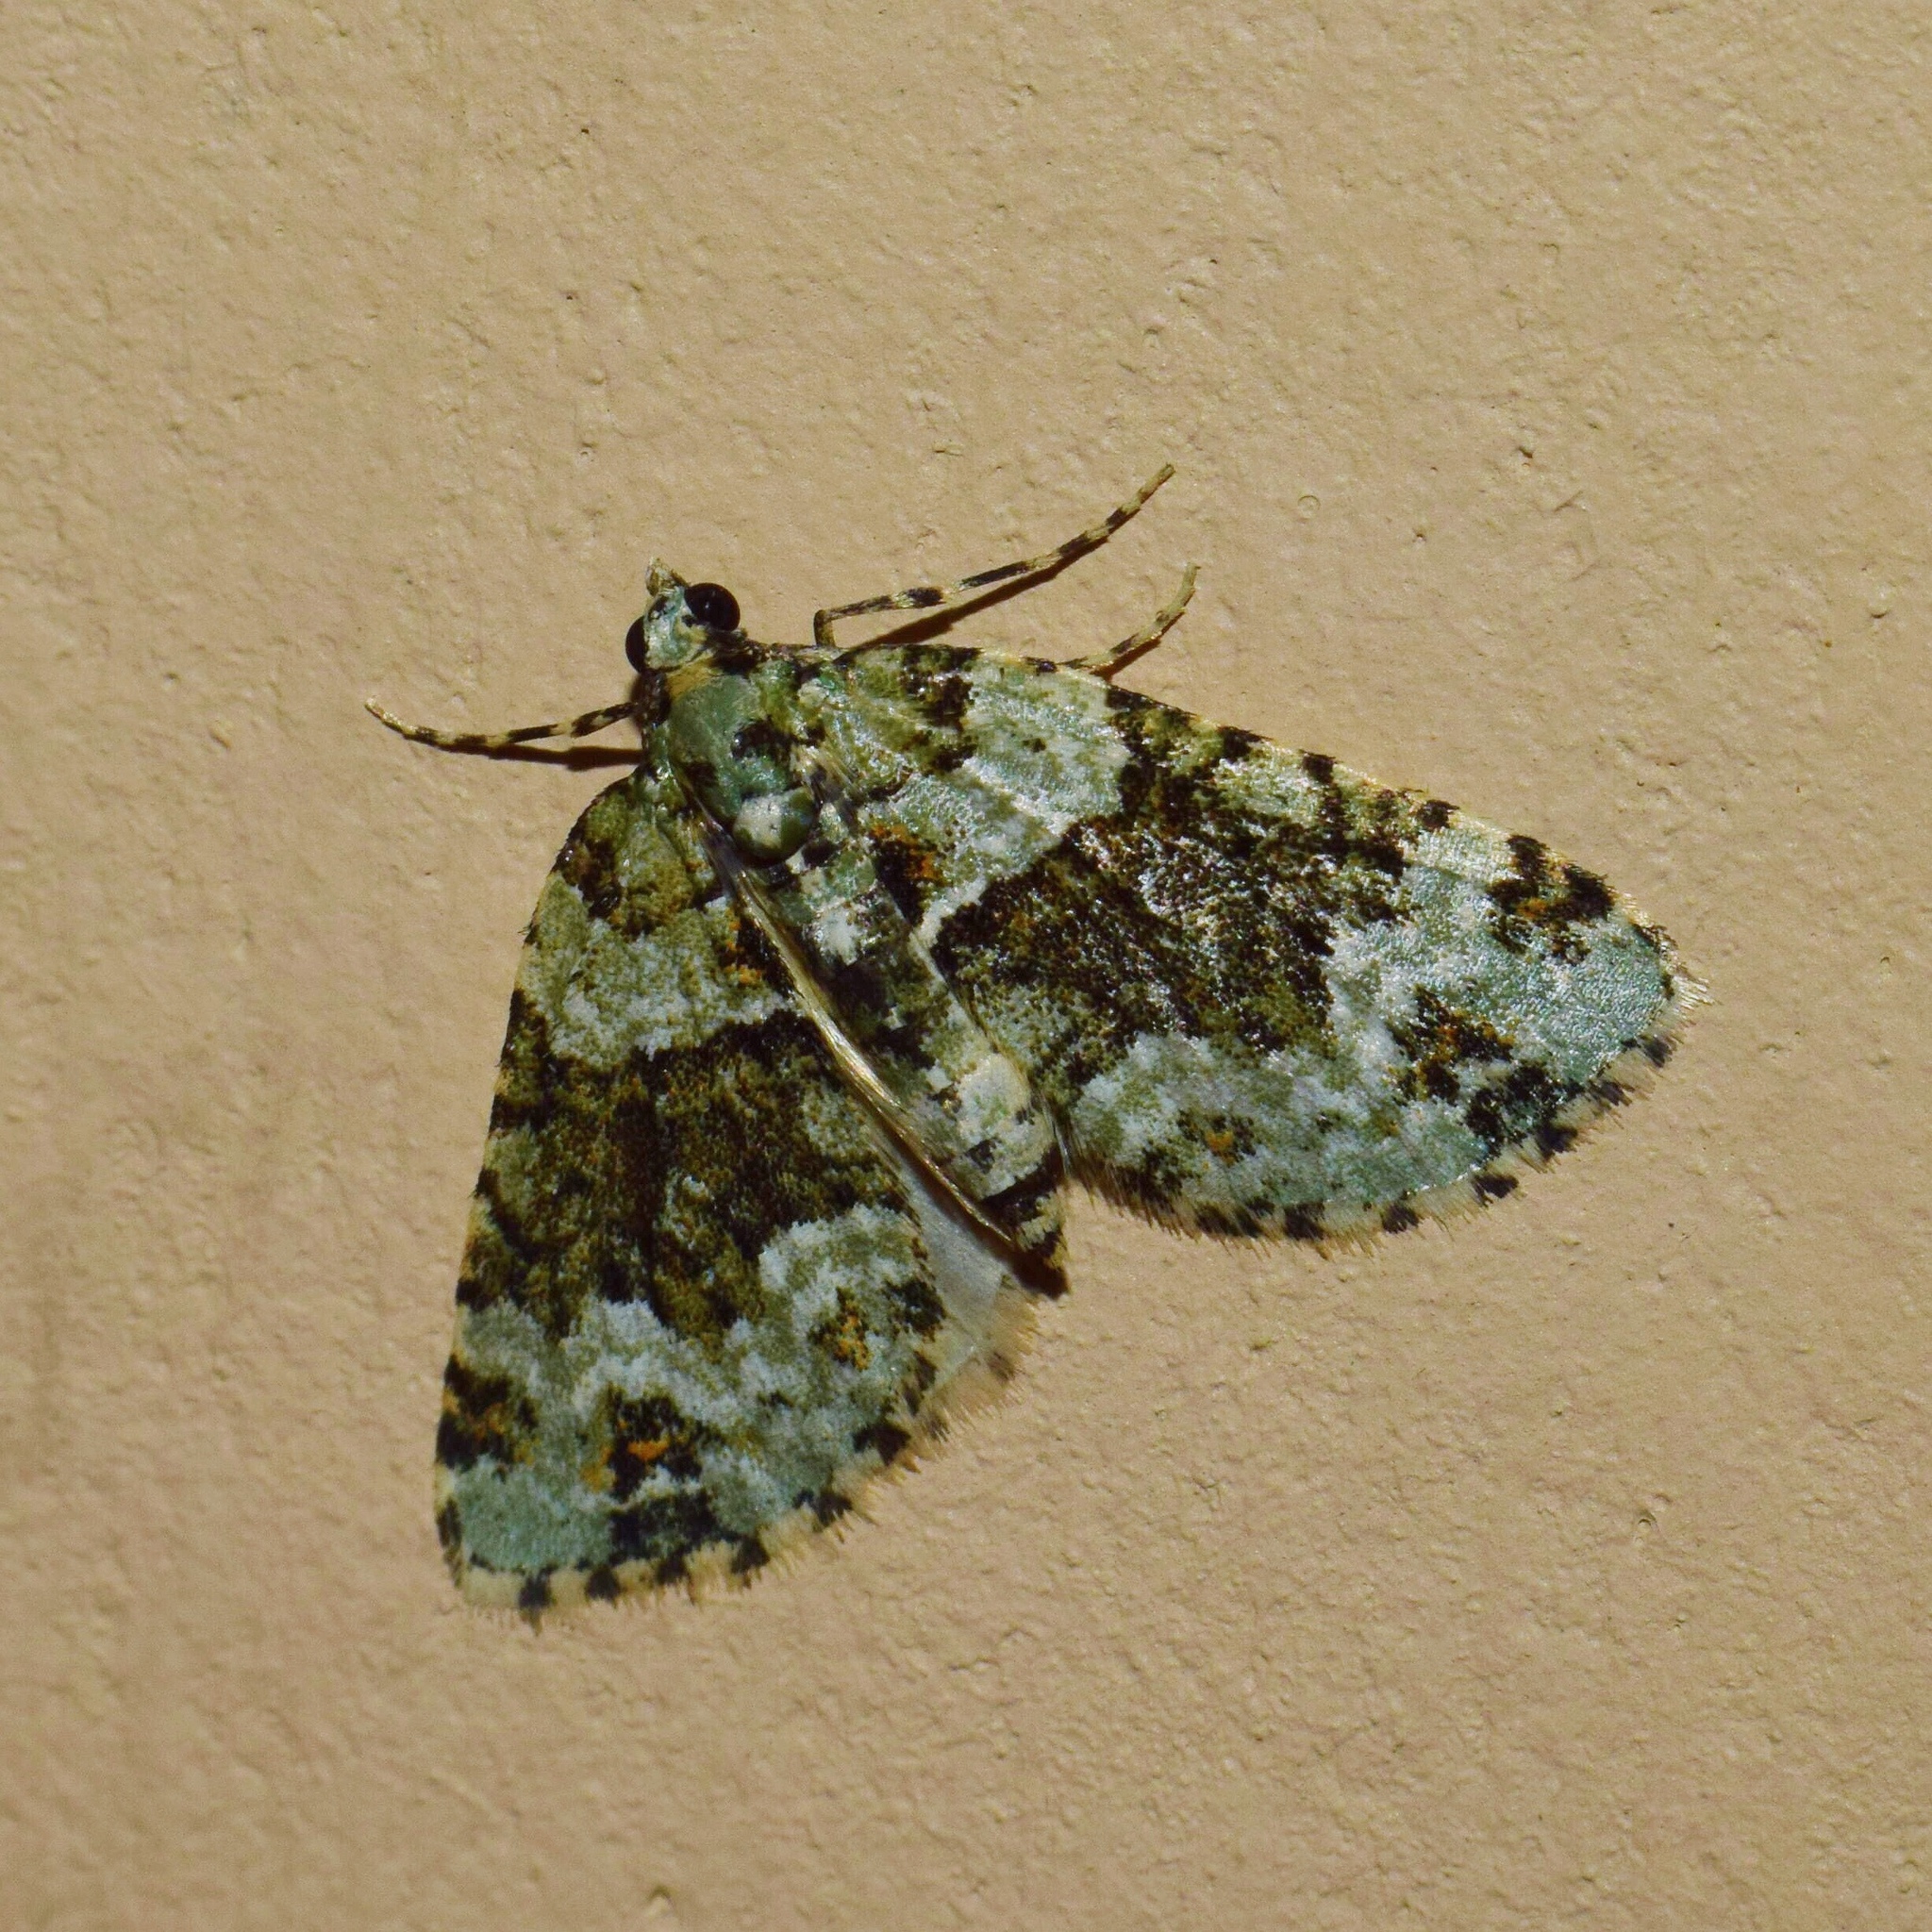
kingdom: Animalia
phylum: Arthropoda
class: Insecta
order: Lepidoptera
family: Geometridae
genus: Piercia
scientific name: Piercia prasinaria
